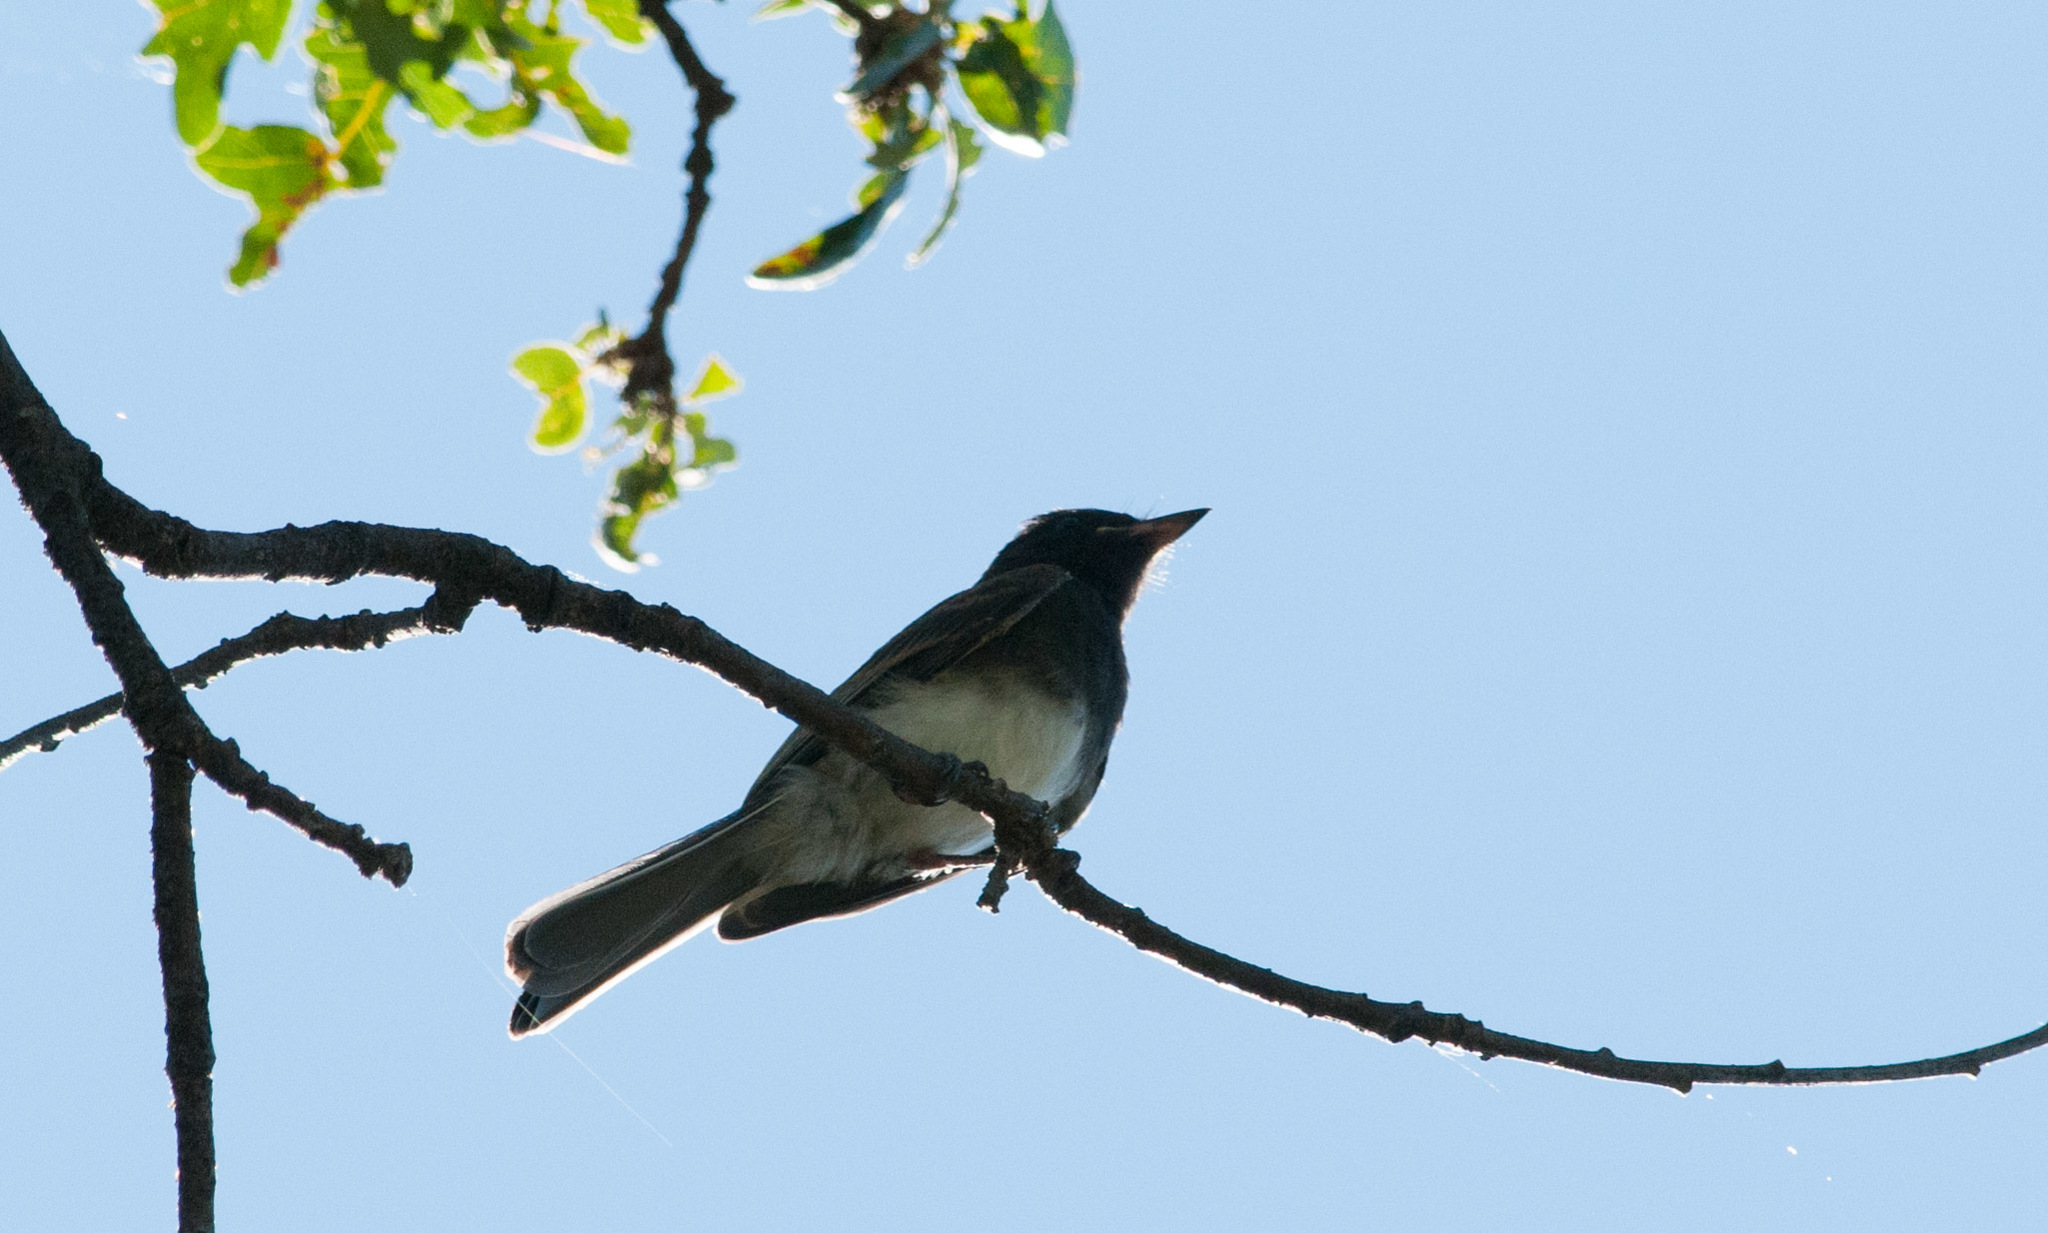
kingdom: Animalia
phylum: Chordata
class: Aves
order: Passeriformes
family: Tyrannidae
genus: Sayornis
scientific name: Sayornis nigricans
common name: Black phoebe
